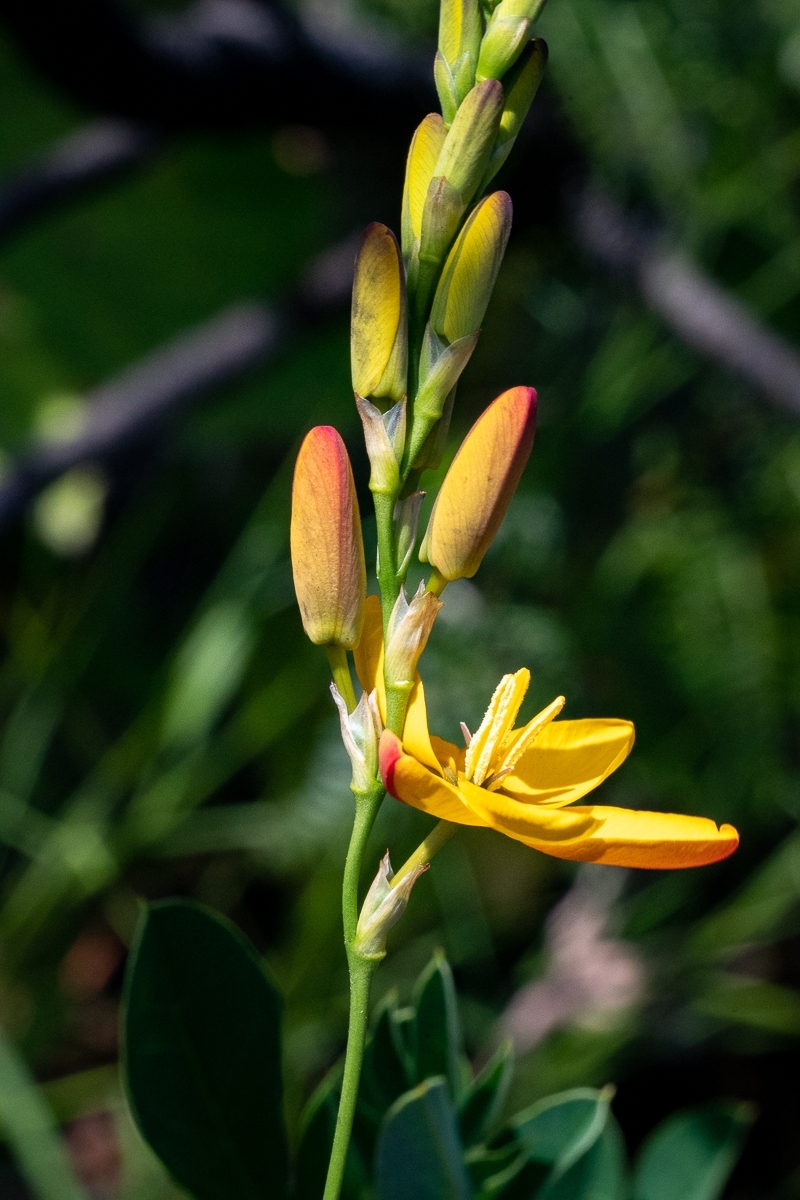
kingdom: Plantae
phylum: Tracheophyta
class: Liliopsida
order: Asparagales
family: Iridaceae
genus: Ixia
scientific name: Ixia dubia
